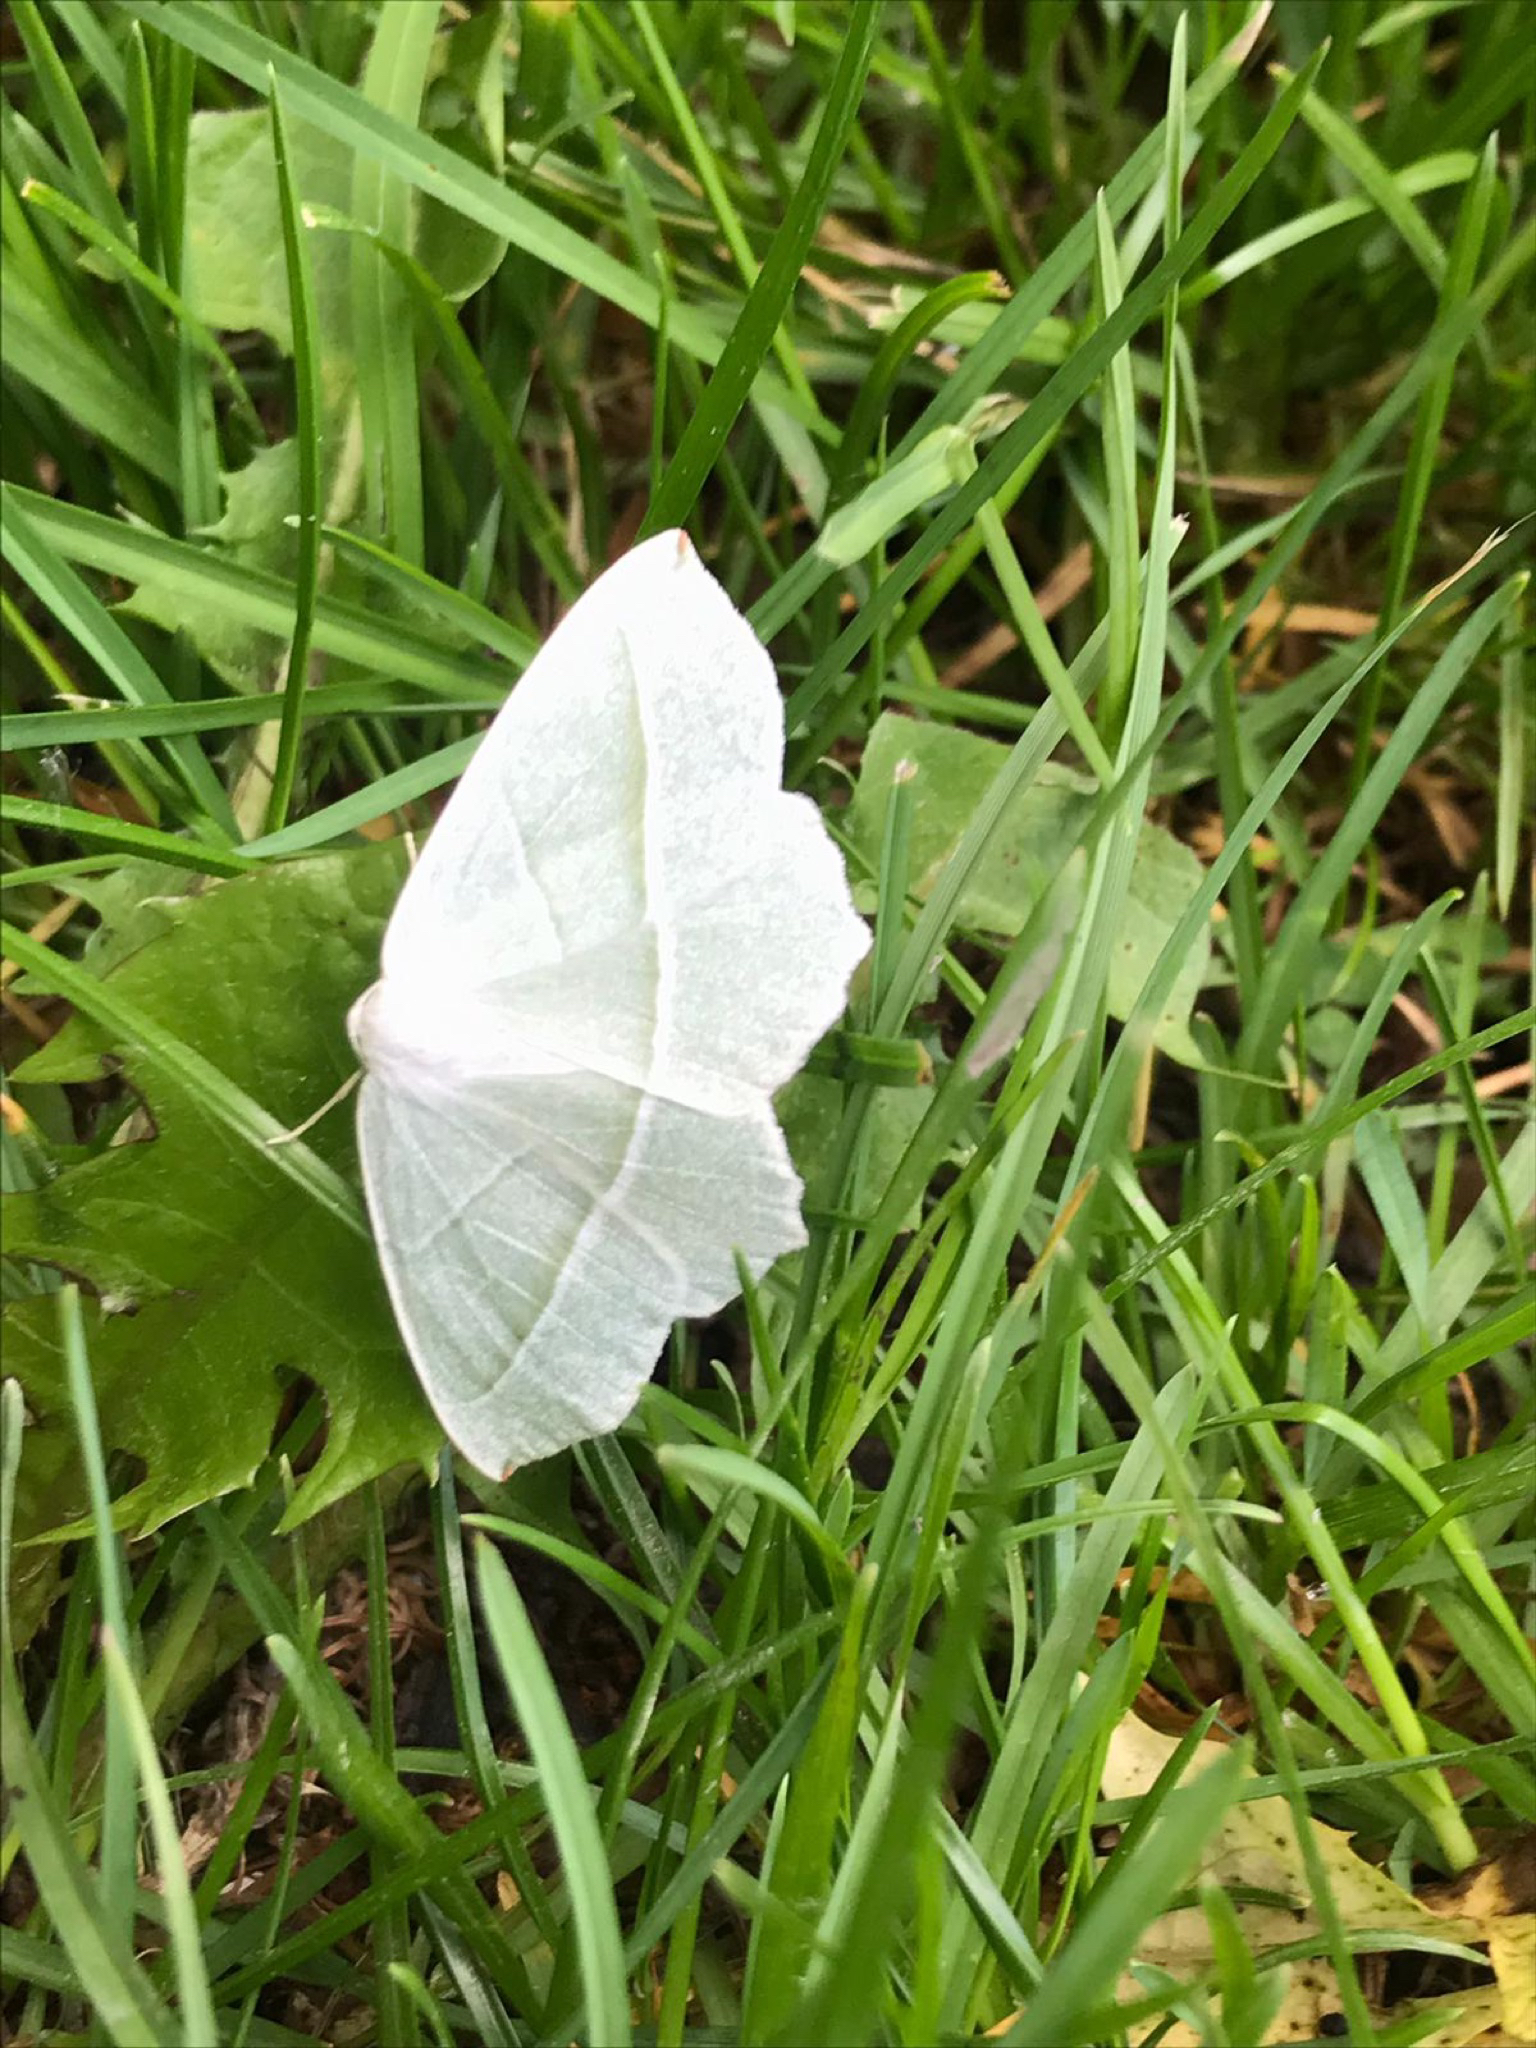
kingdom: Animalia
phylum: Arthropoda
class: Insecta
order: Lepidoptera
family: Geometridae
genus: Campaea
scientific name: Campaea margaritaria
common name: Light emerald
